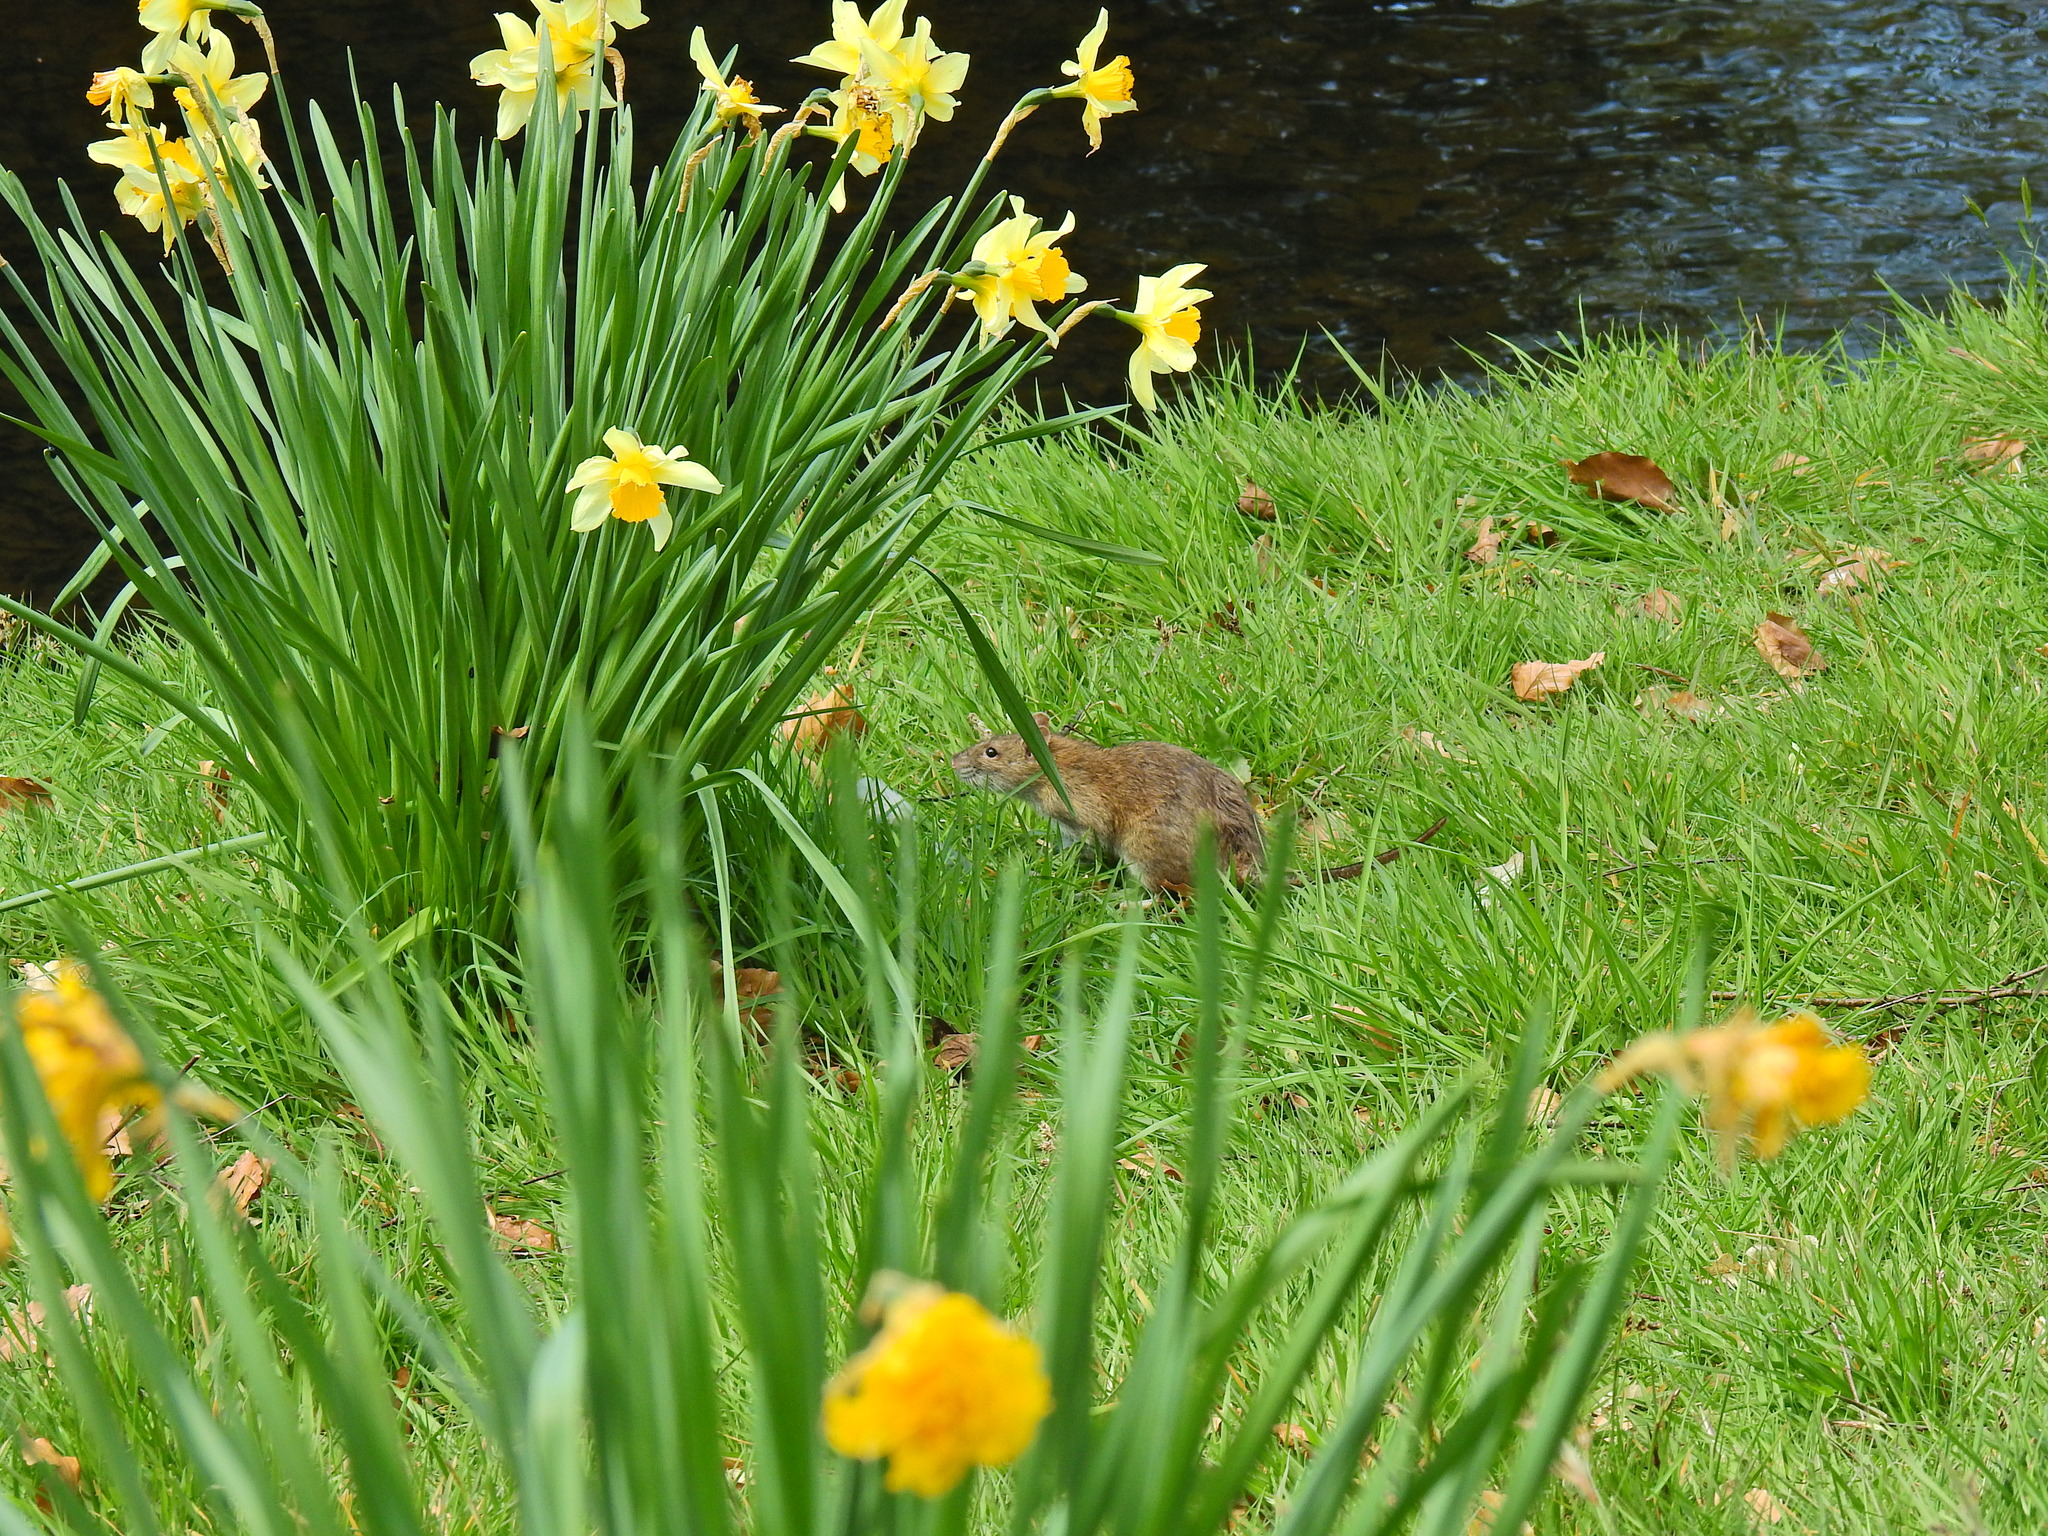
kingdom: Animalia
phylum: Chordata
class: Mammalia
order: Rodentia
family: Muridae
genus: Rattus
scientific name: Rattus norvegicus
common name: Brown rat
